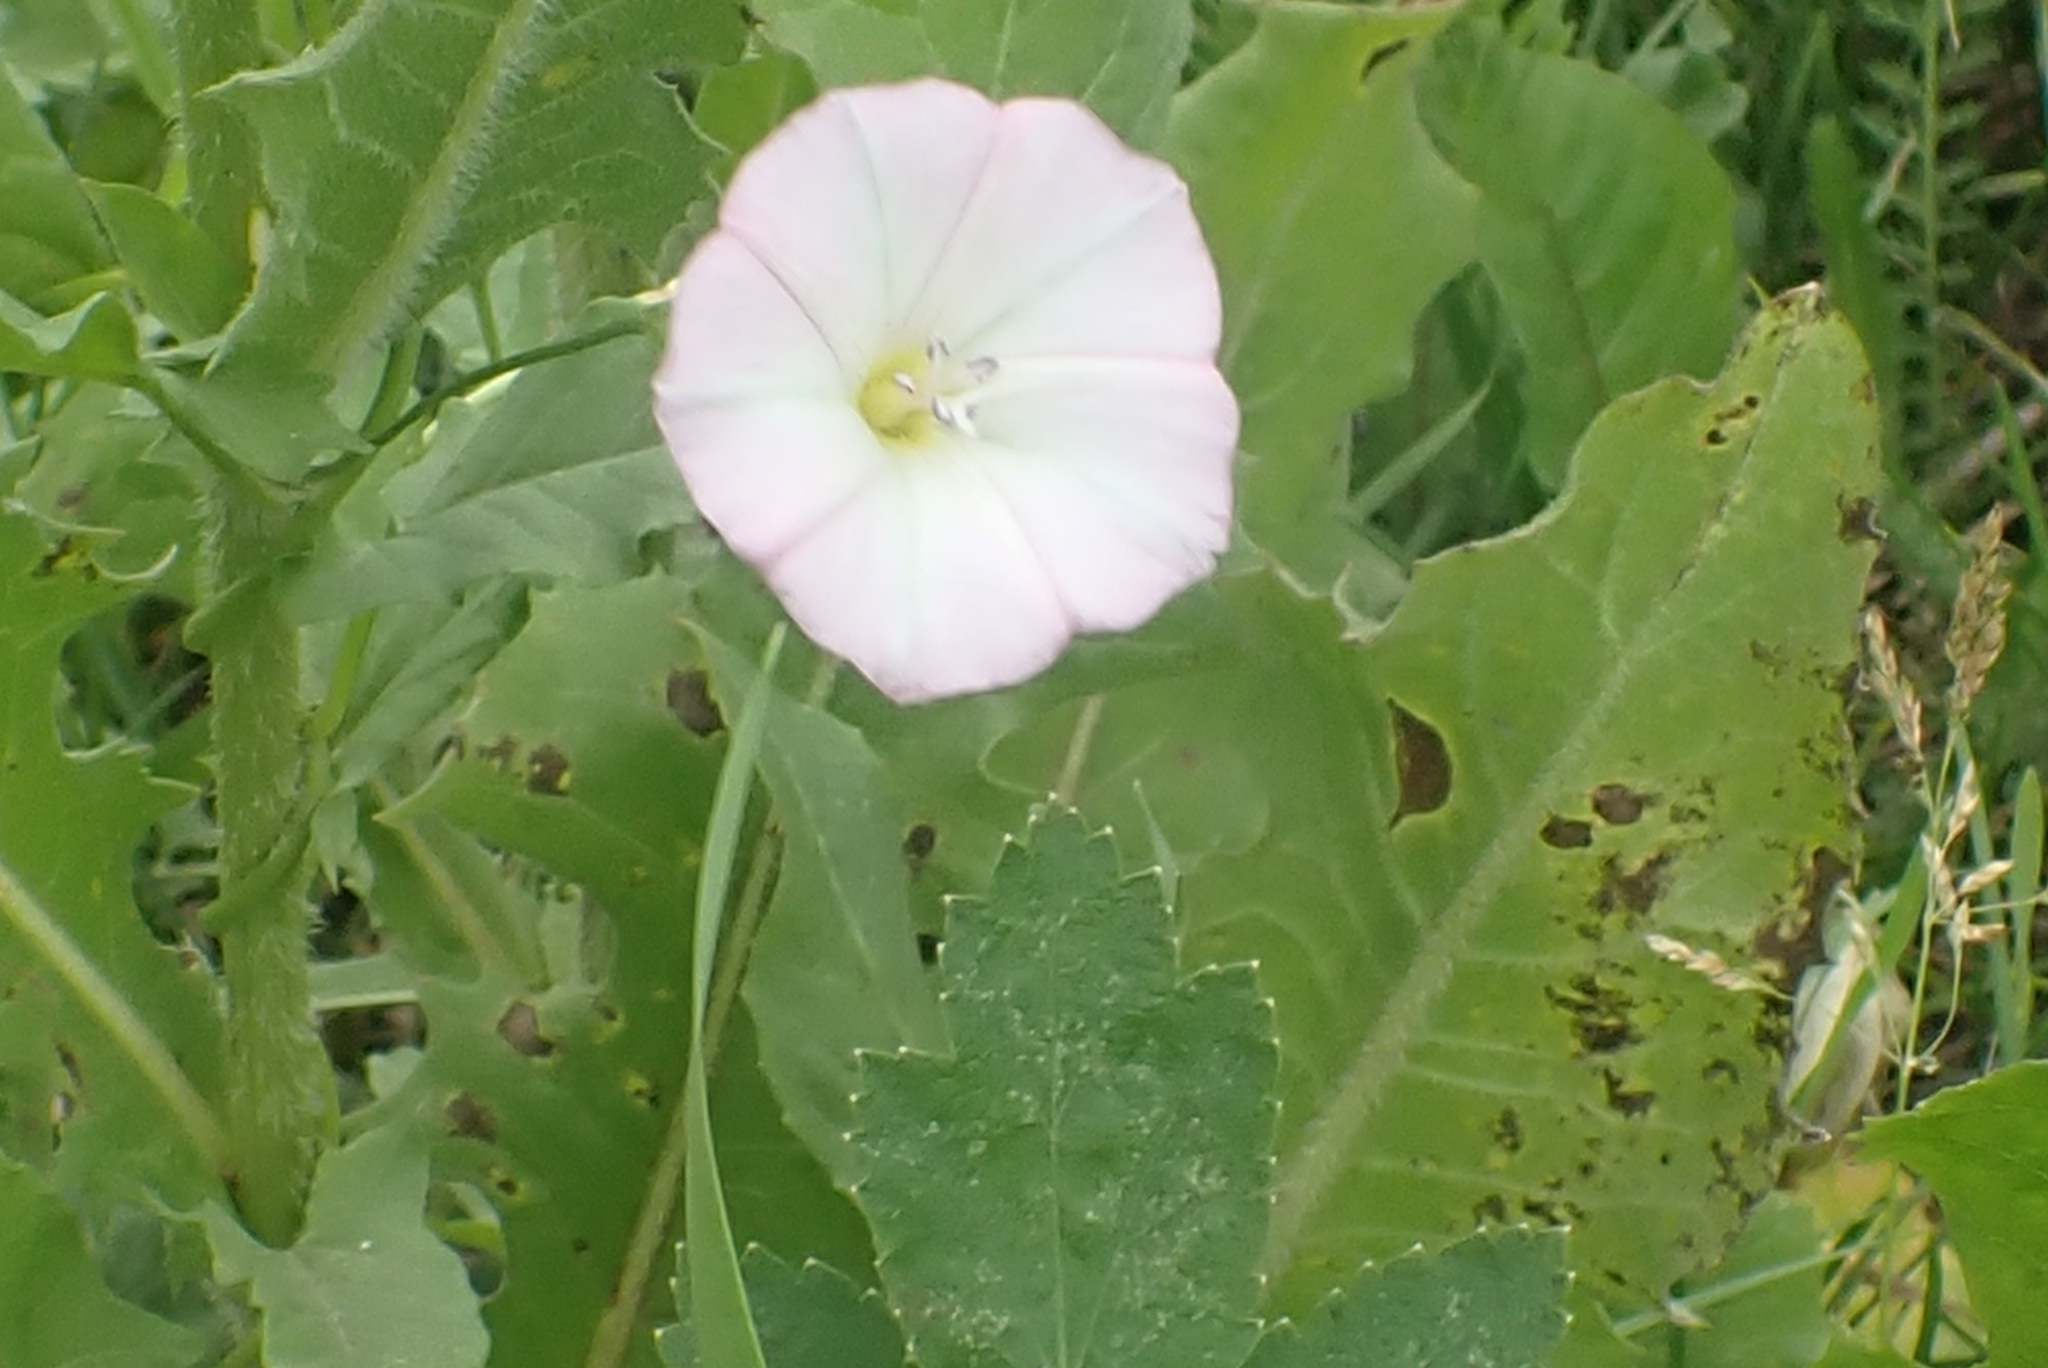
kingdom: Plantae
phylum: Tracheophyta
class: Magnoliopsida
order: Solanales
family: Convolvulaceae
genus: Convolvulus
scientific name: Convolvulus arvensis
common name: Field bindweed
